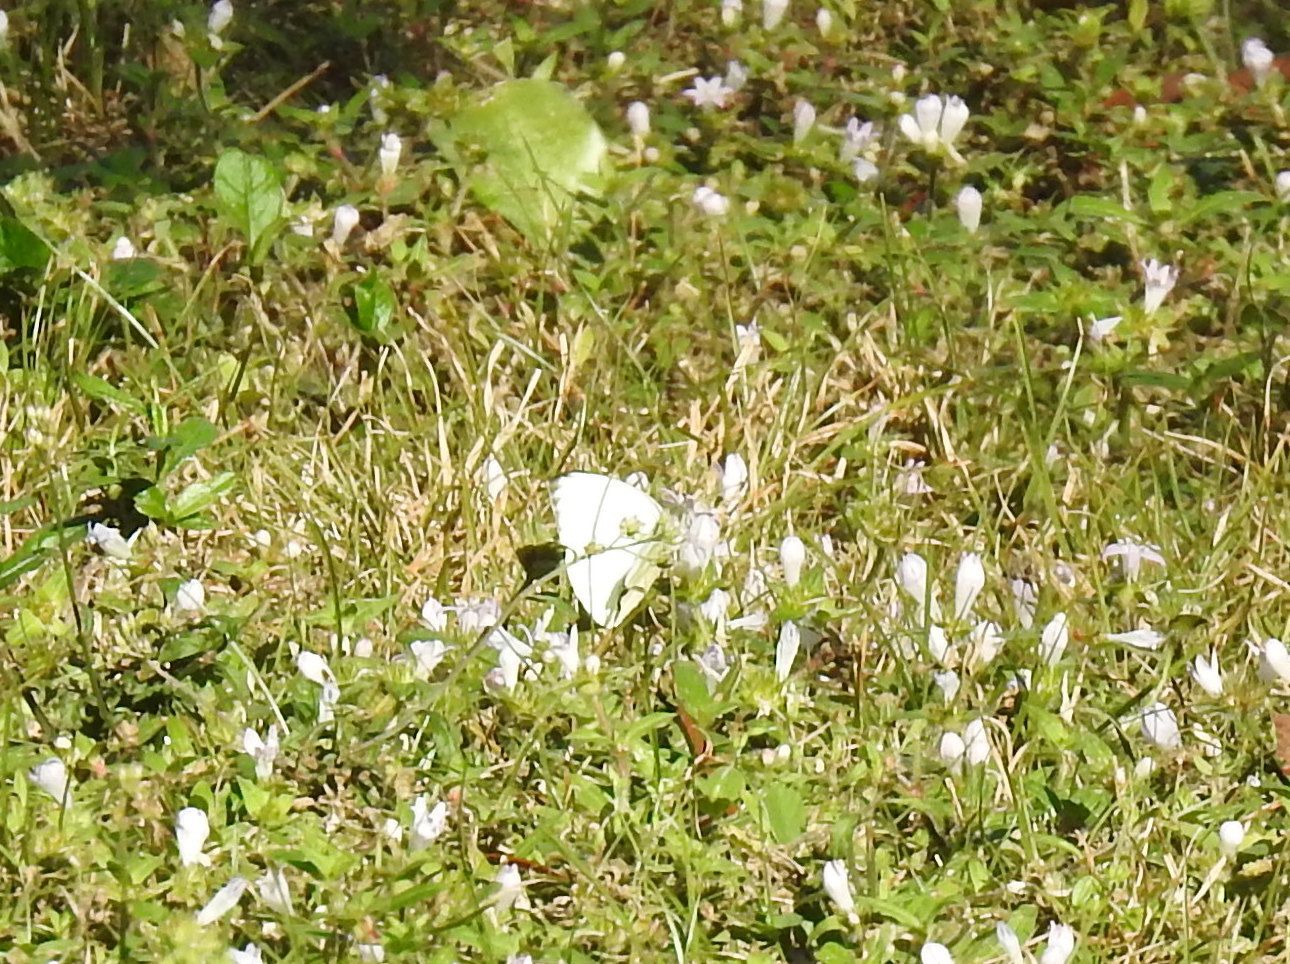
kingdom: Animalia
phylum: Arthropoda
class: Insecta
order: Lepidoptera
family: Pieridae
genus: Ascia
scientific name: Ascia monuste
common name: Great southern white
